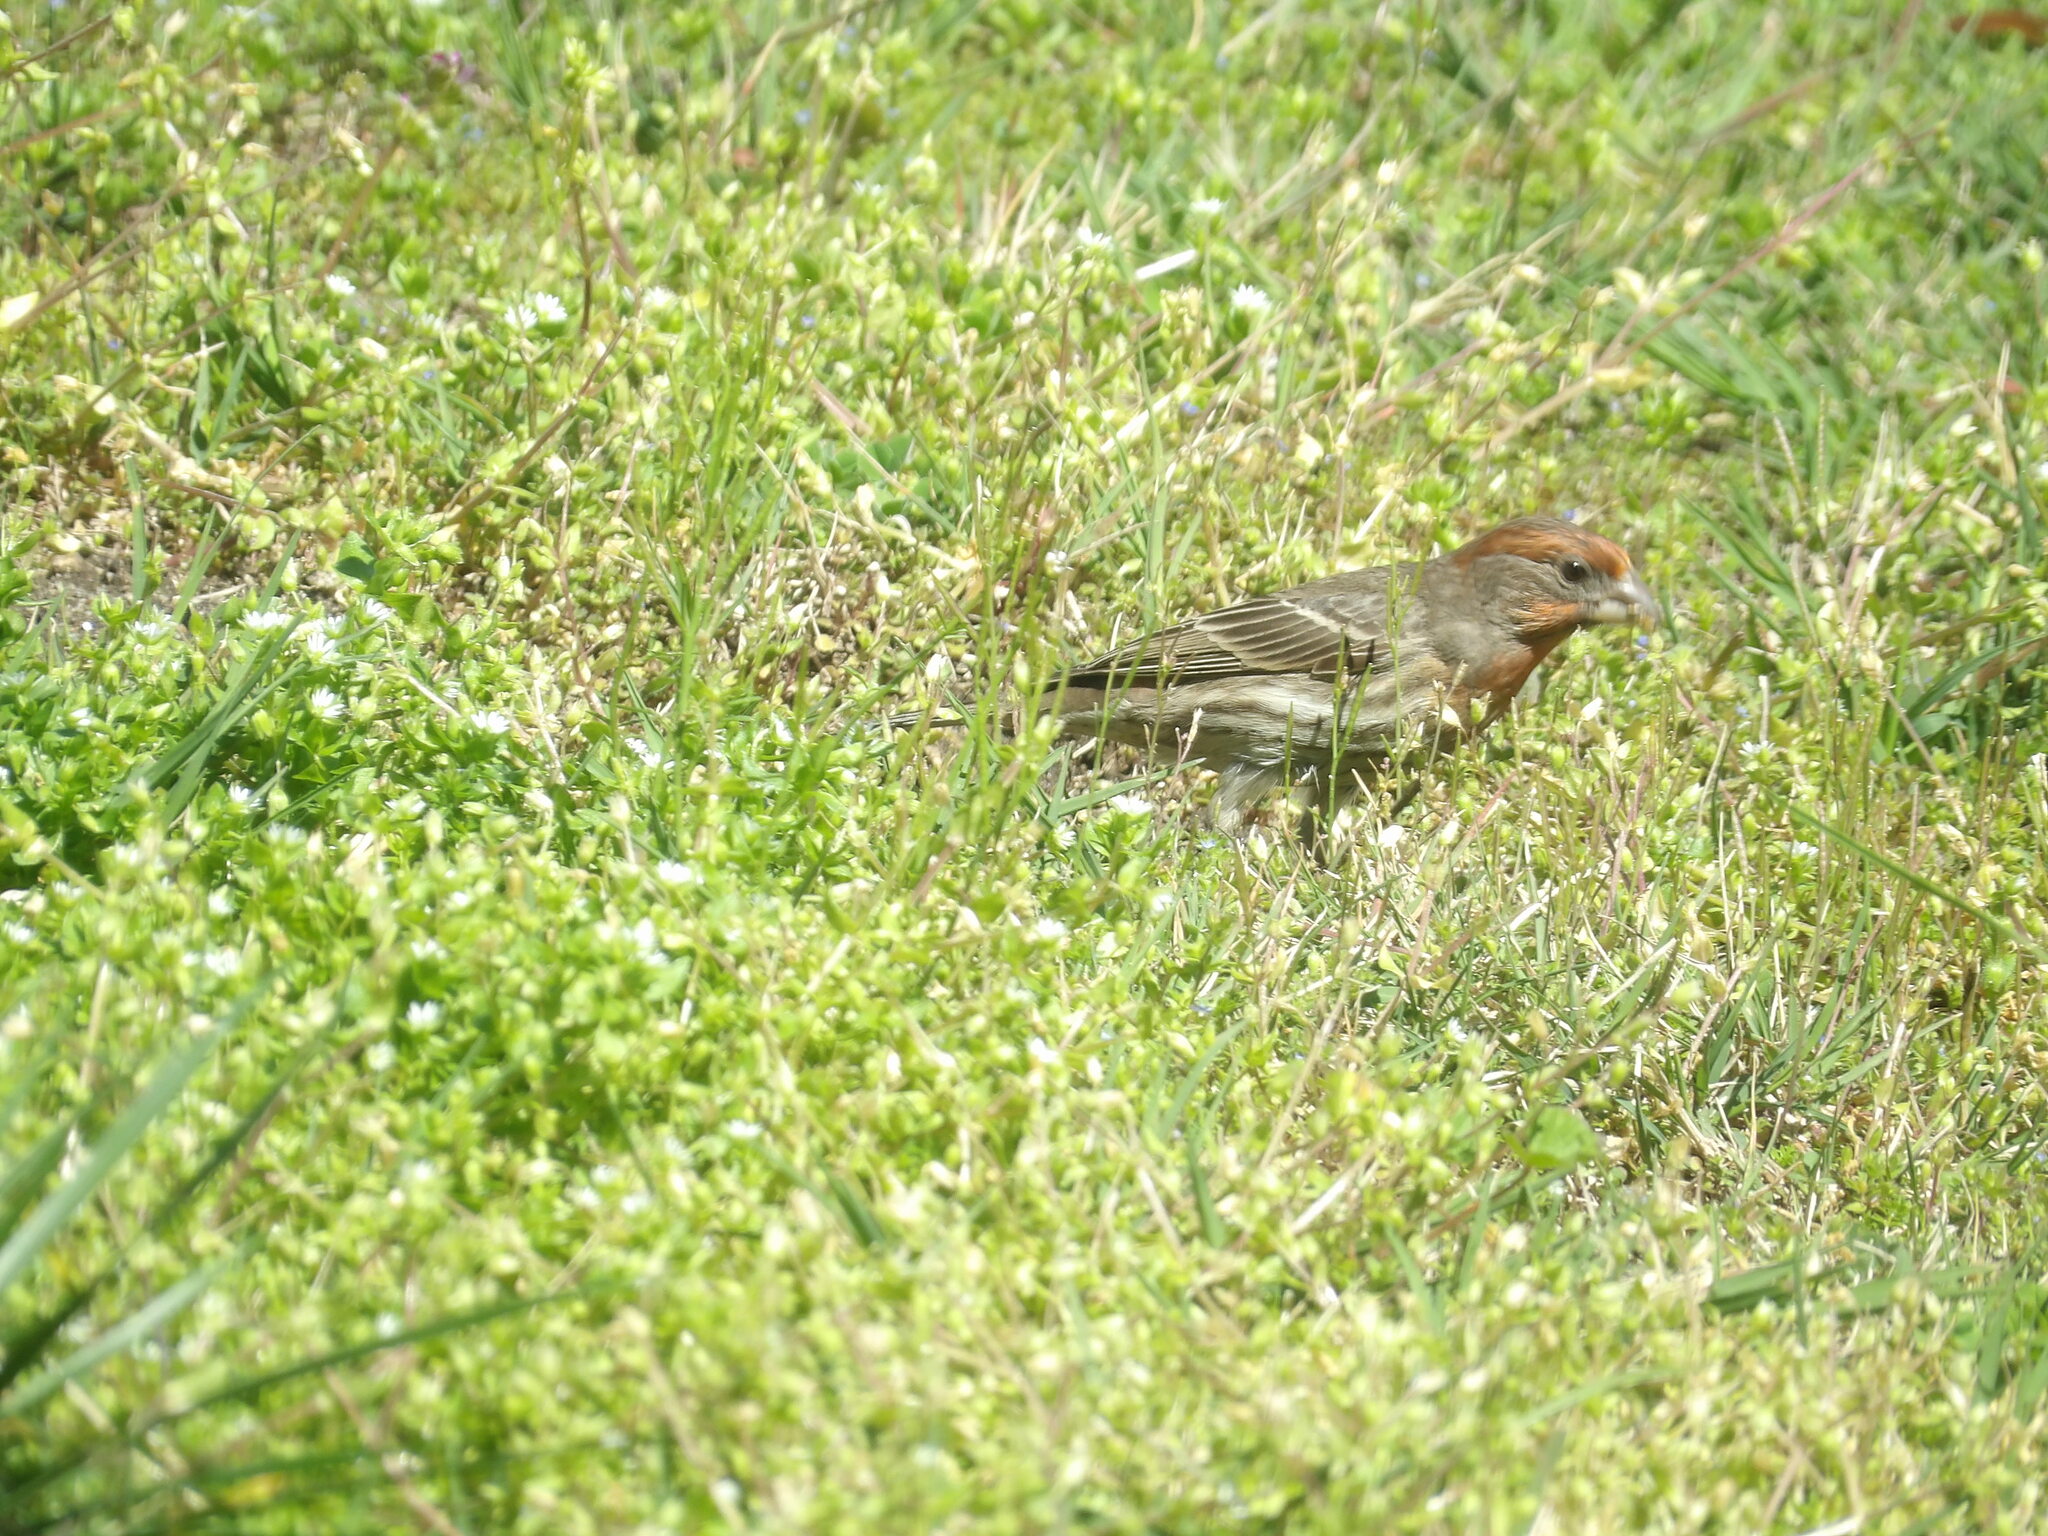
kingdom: Animalia
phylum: Chordata
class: Aves
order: Passeriformes
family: Fringillidae
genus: Haemorhous
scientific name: Haemorhous mexicanus
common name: House finch
